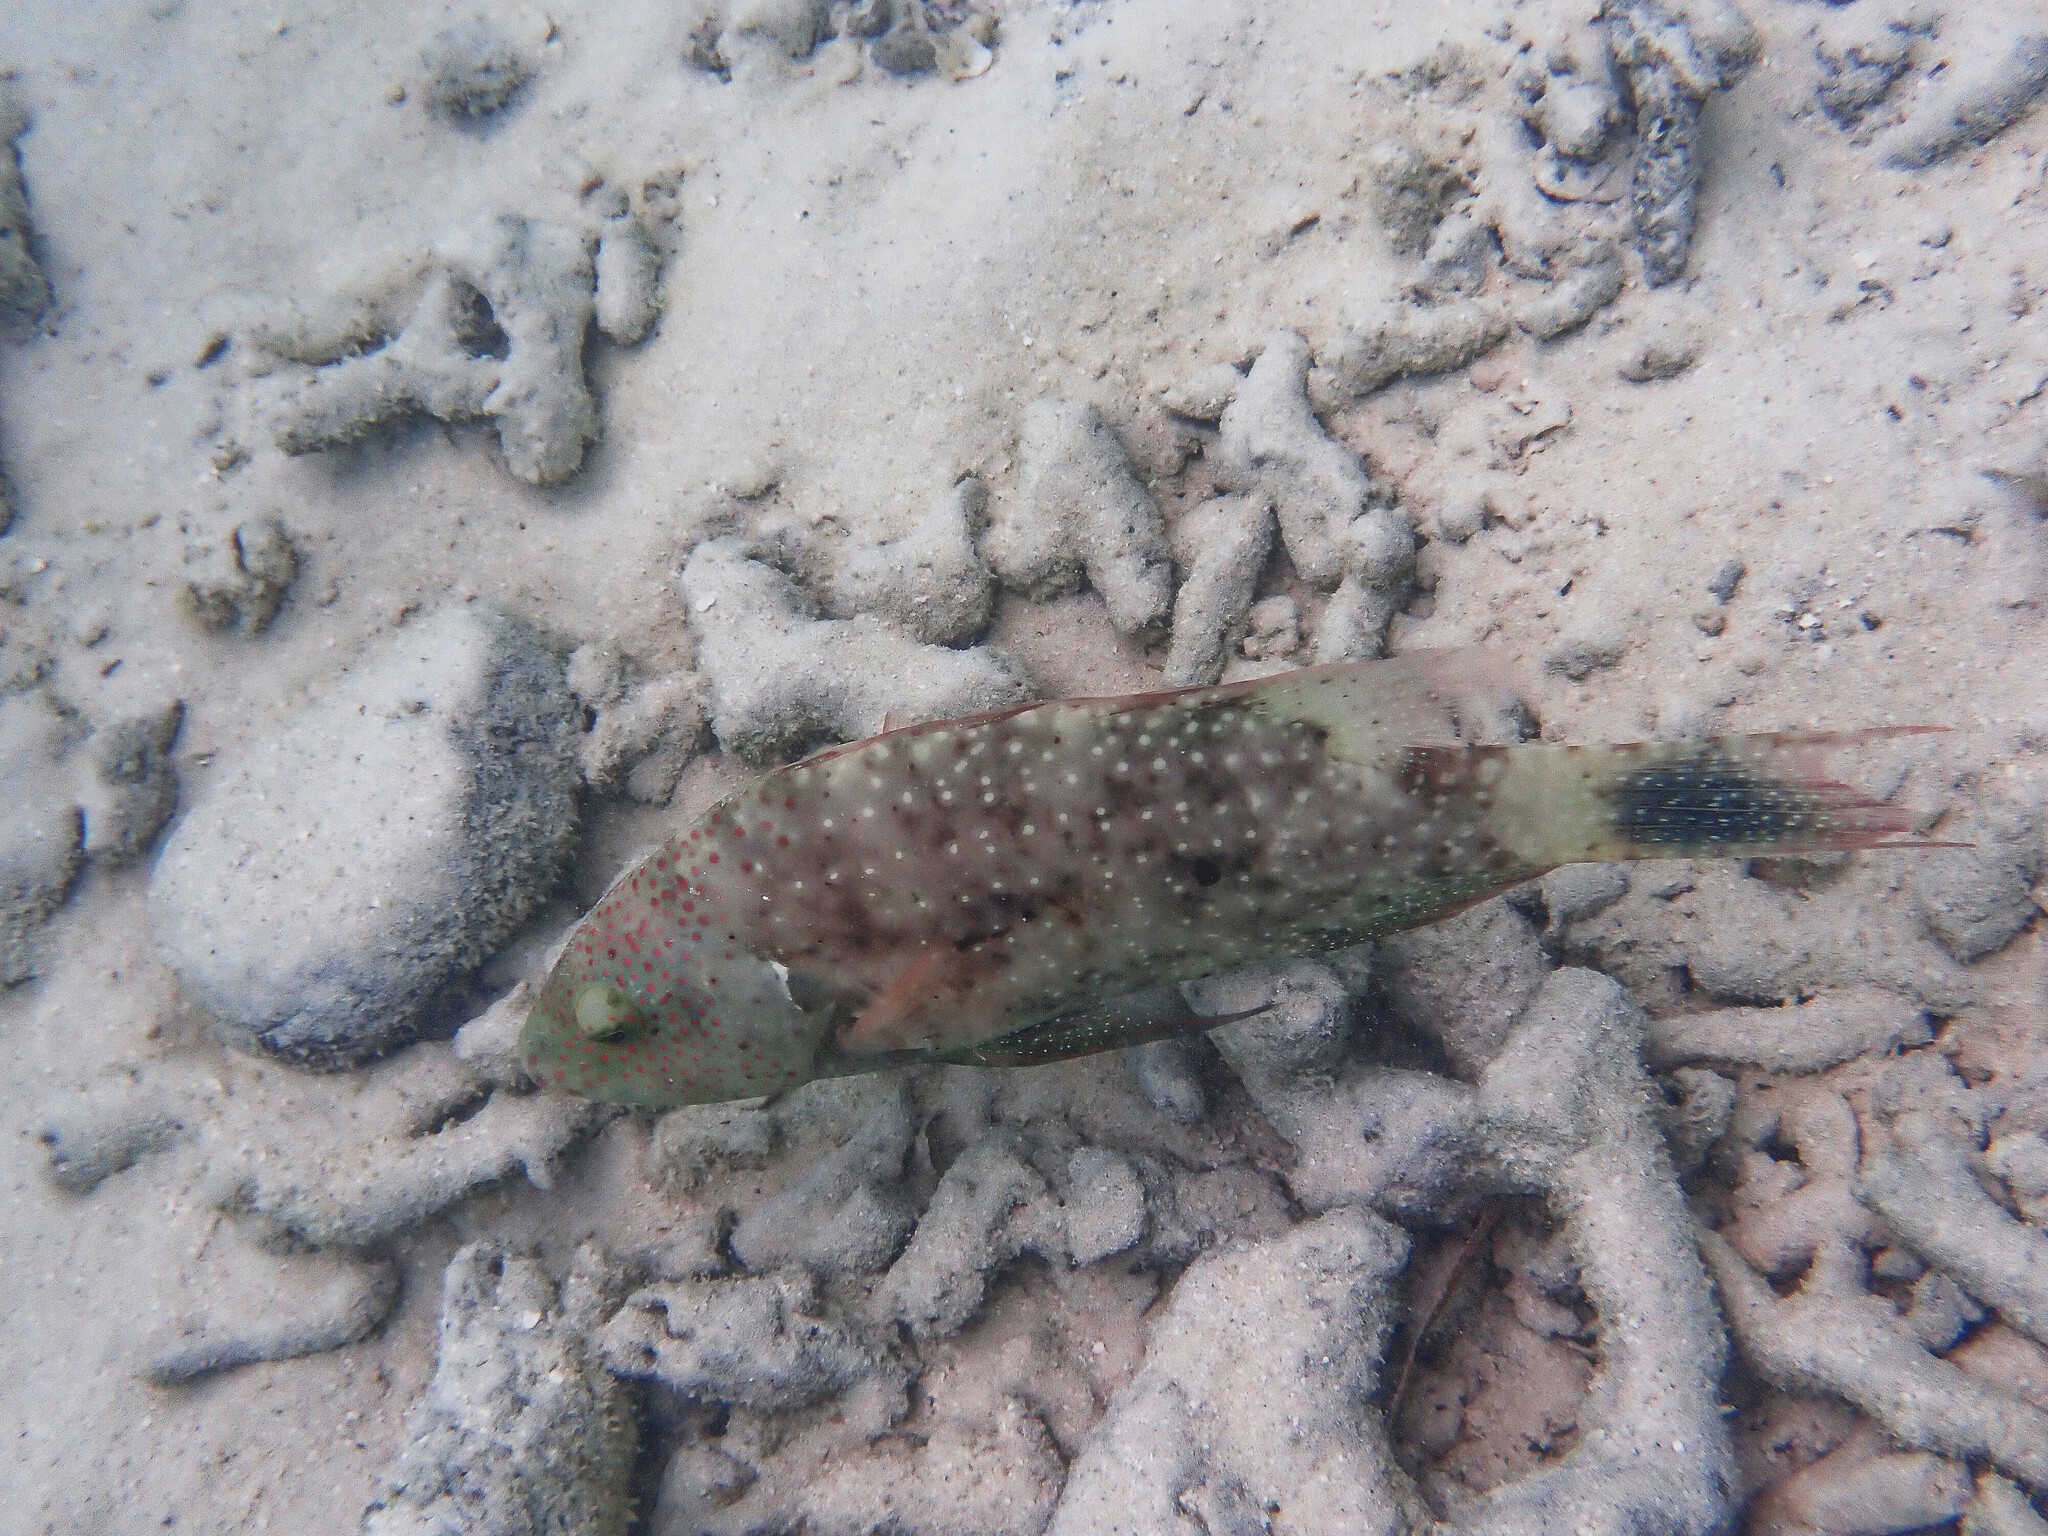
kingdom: Animalia
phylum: Chordata
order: Perciformes
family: Labridae
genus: Cheilinus
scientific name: Cheilinus chlorourus
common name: Floral wrasse
